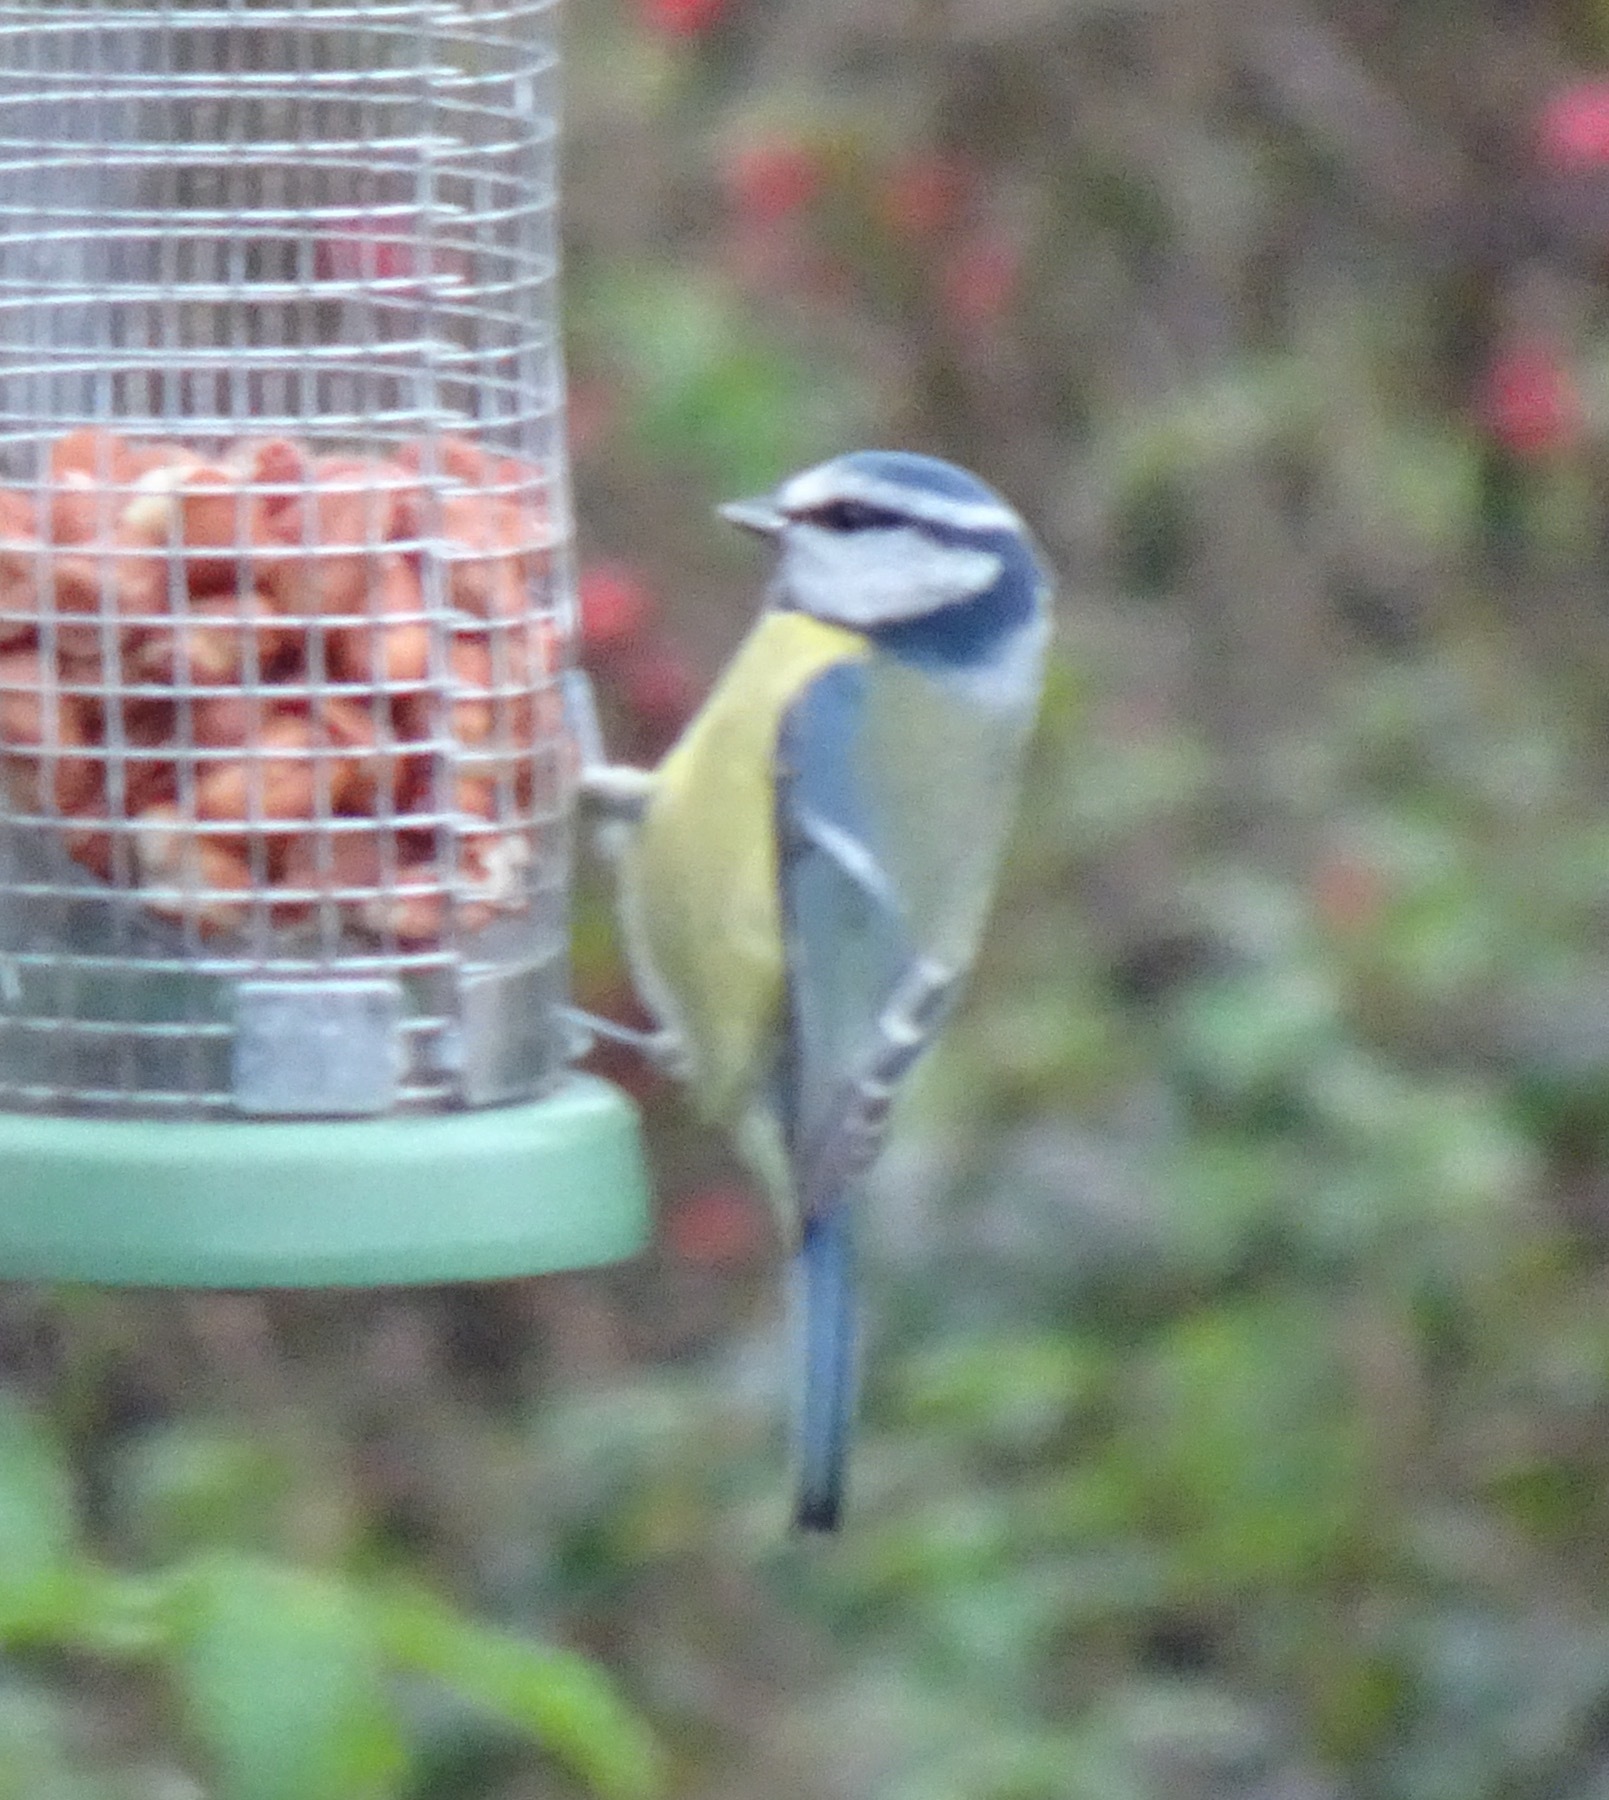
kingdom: Animalia
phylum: Chordata
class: Aves
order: Passeriformes
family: Paridae
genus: Cyanistes
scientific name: Cyanistes caeruleus
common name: Eurasian blue tit
